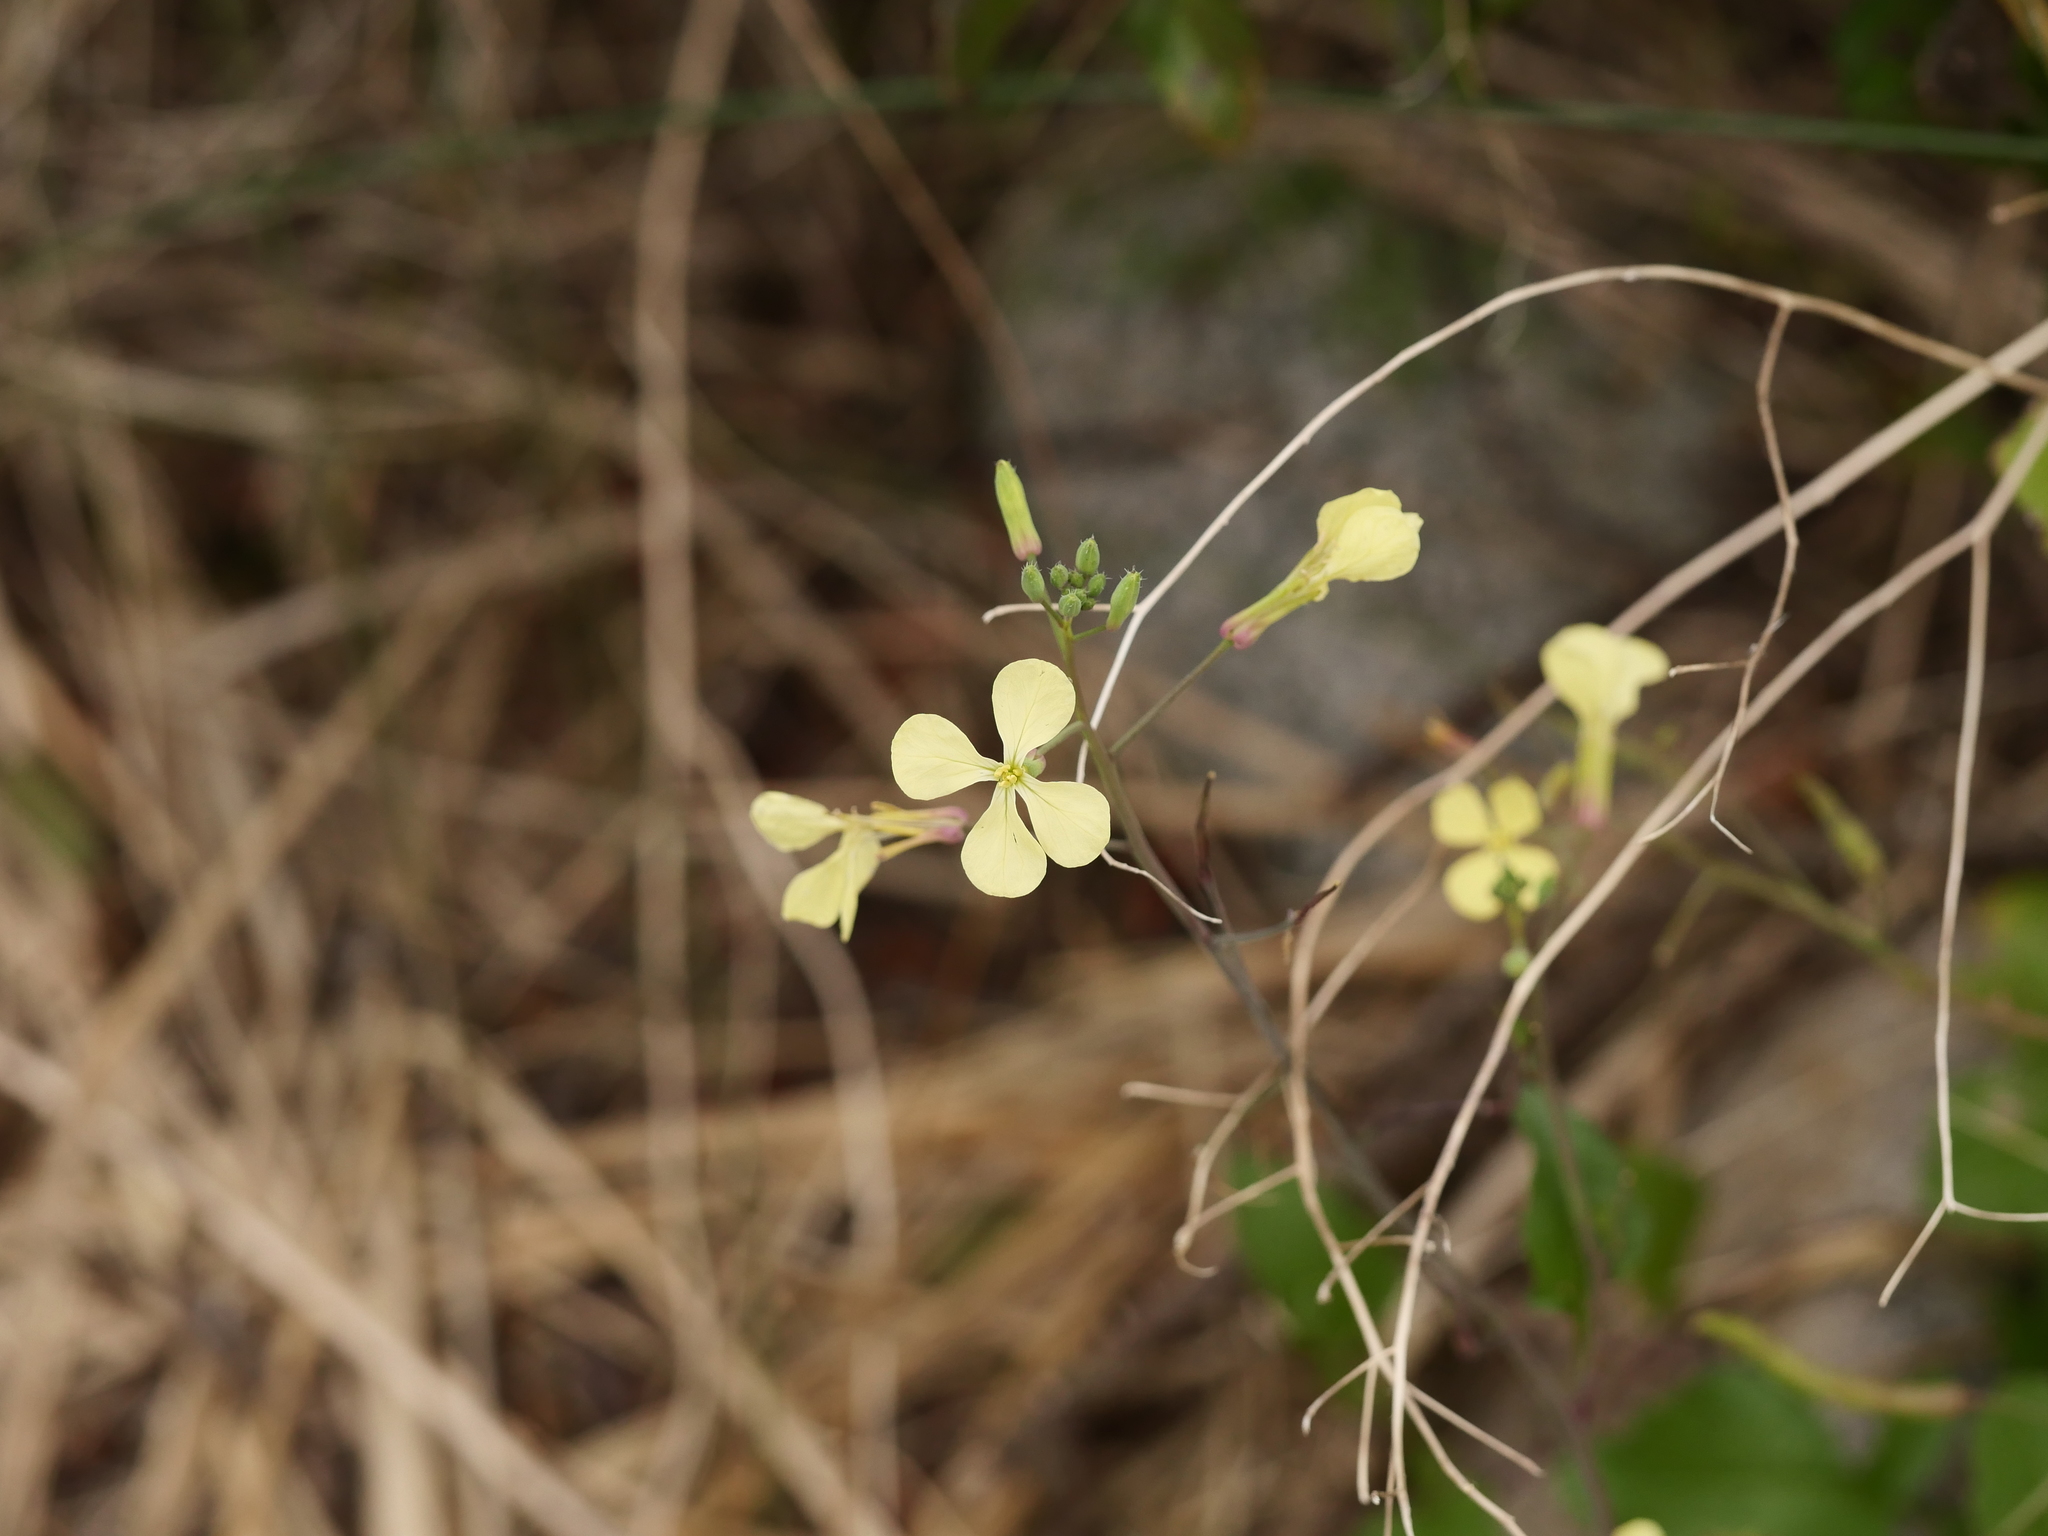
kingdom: Plantae
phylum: Tracheophyta
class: Magnoliopsida
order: Brassicales
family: Brassicaceae
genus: Raphanus
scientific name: Raphanus raphanistrum
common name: Wild radish
